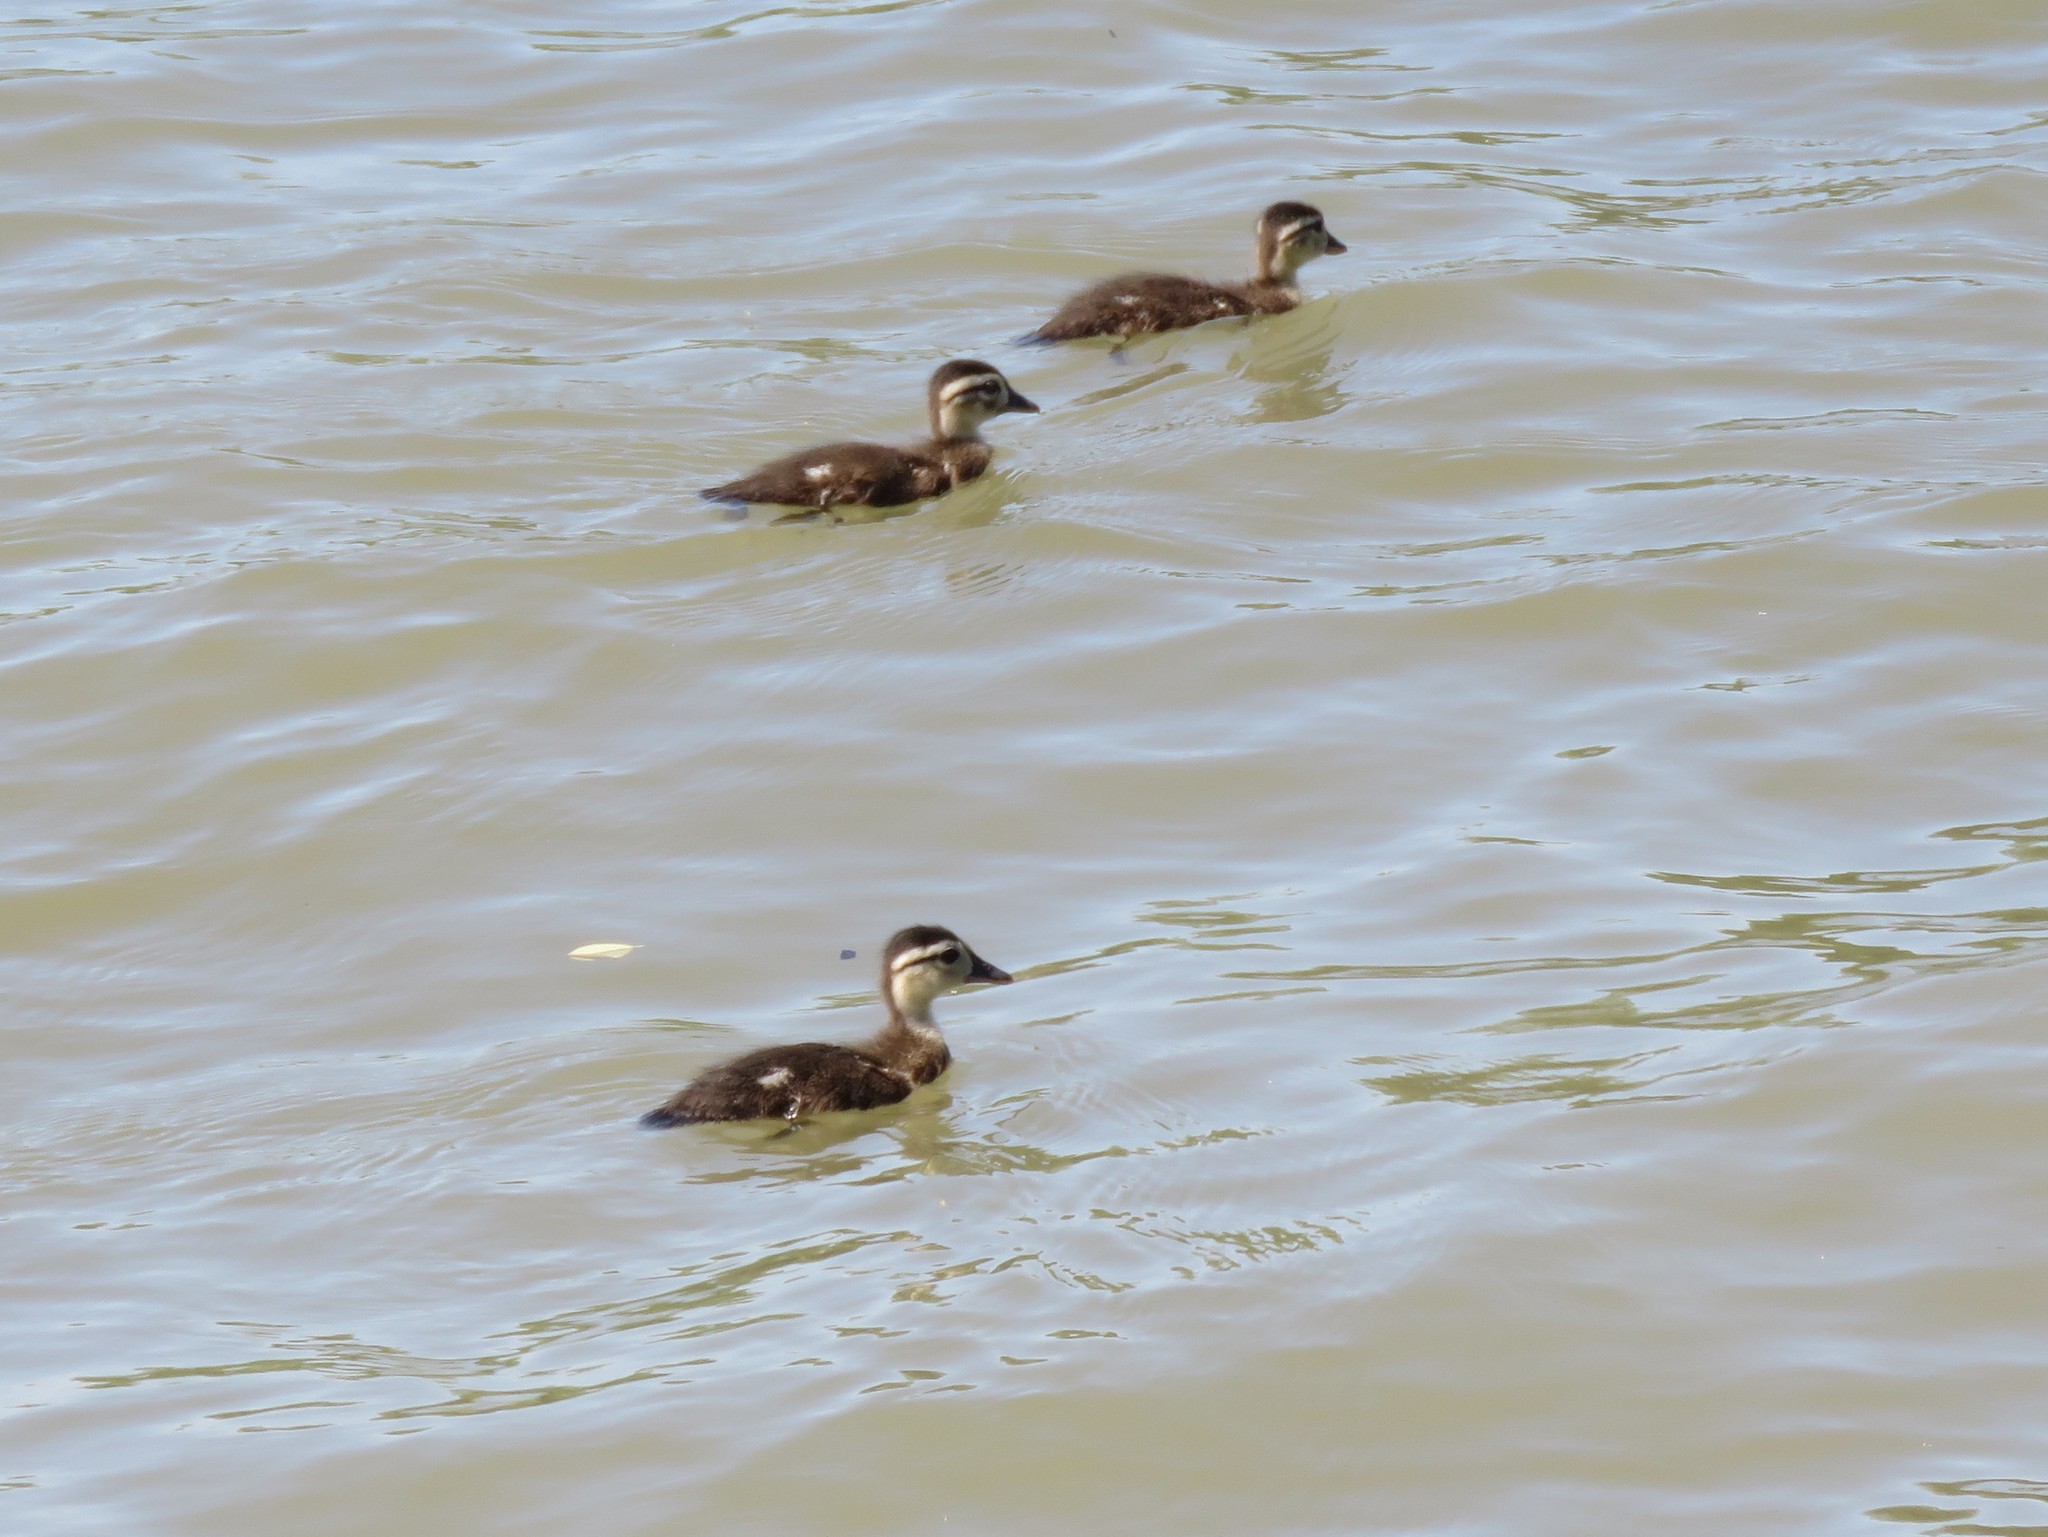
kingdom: Animalia
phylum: Chordata
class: Aves
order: Anseriformes
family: Anatidae
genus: Aix
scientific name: Aix sponsa
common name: Wood duck
